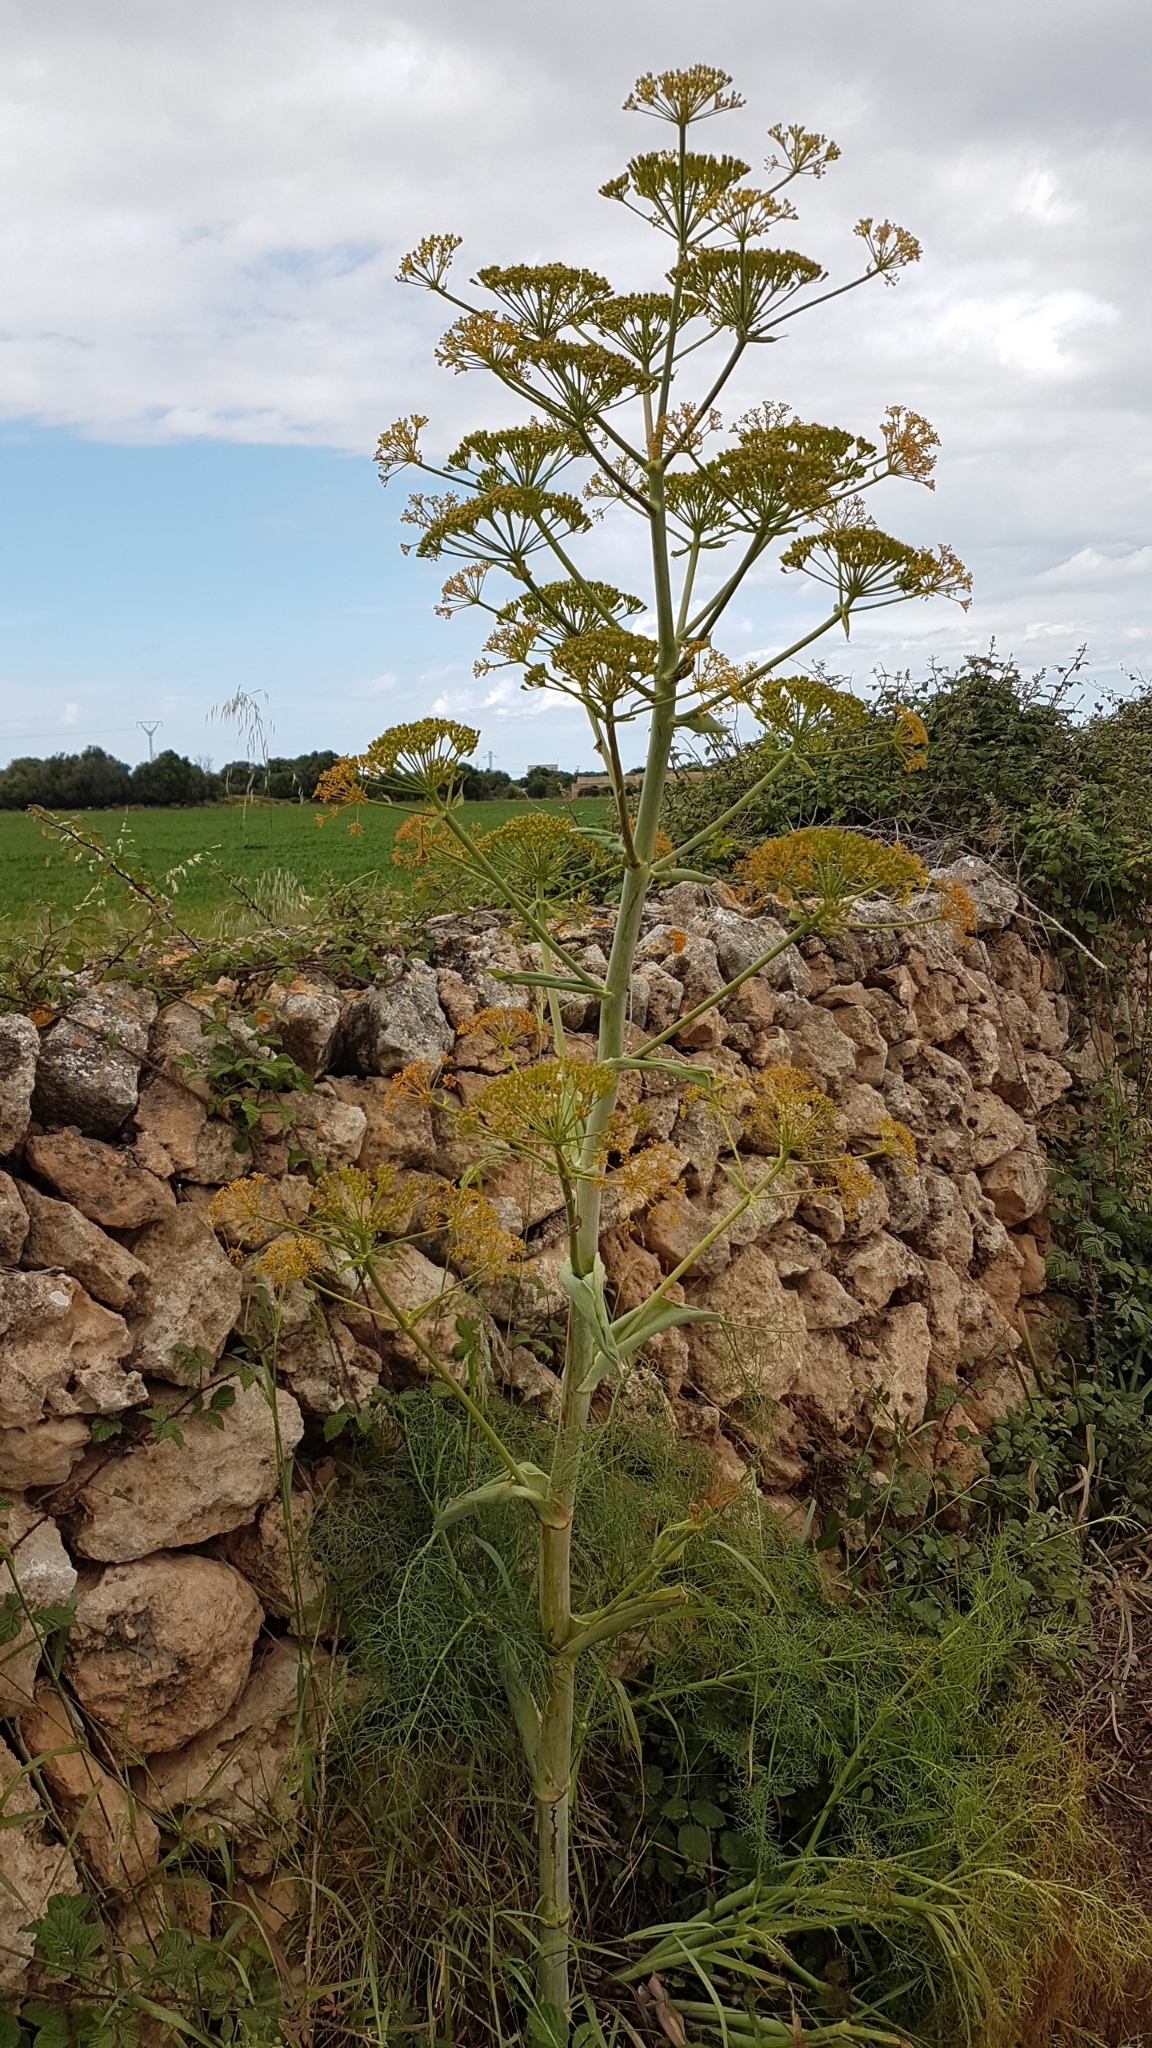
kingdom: Plantae
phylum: Tracheophyta
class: Magnoliopsida
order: Apiales
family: Apiaceae
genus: Ferula
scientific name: Ferula communis
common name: Giant fennel
